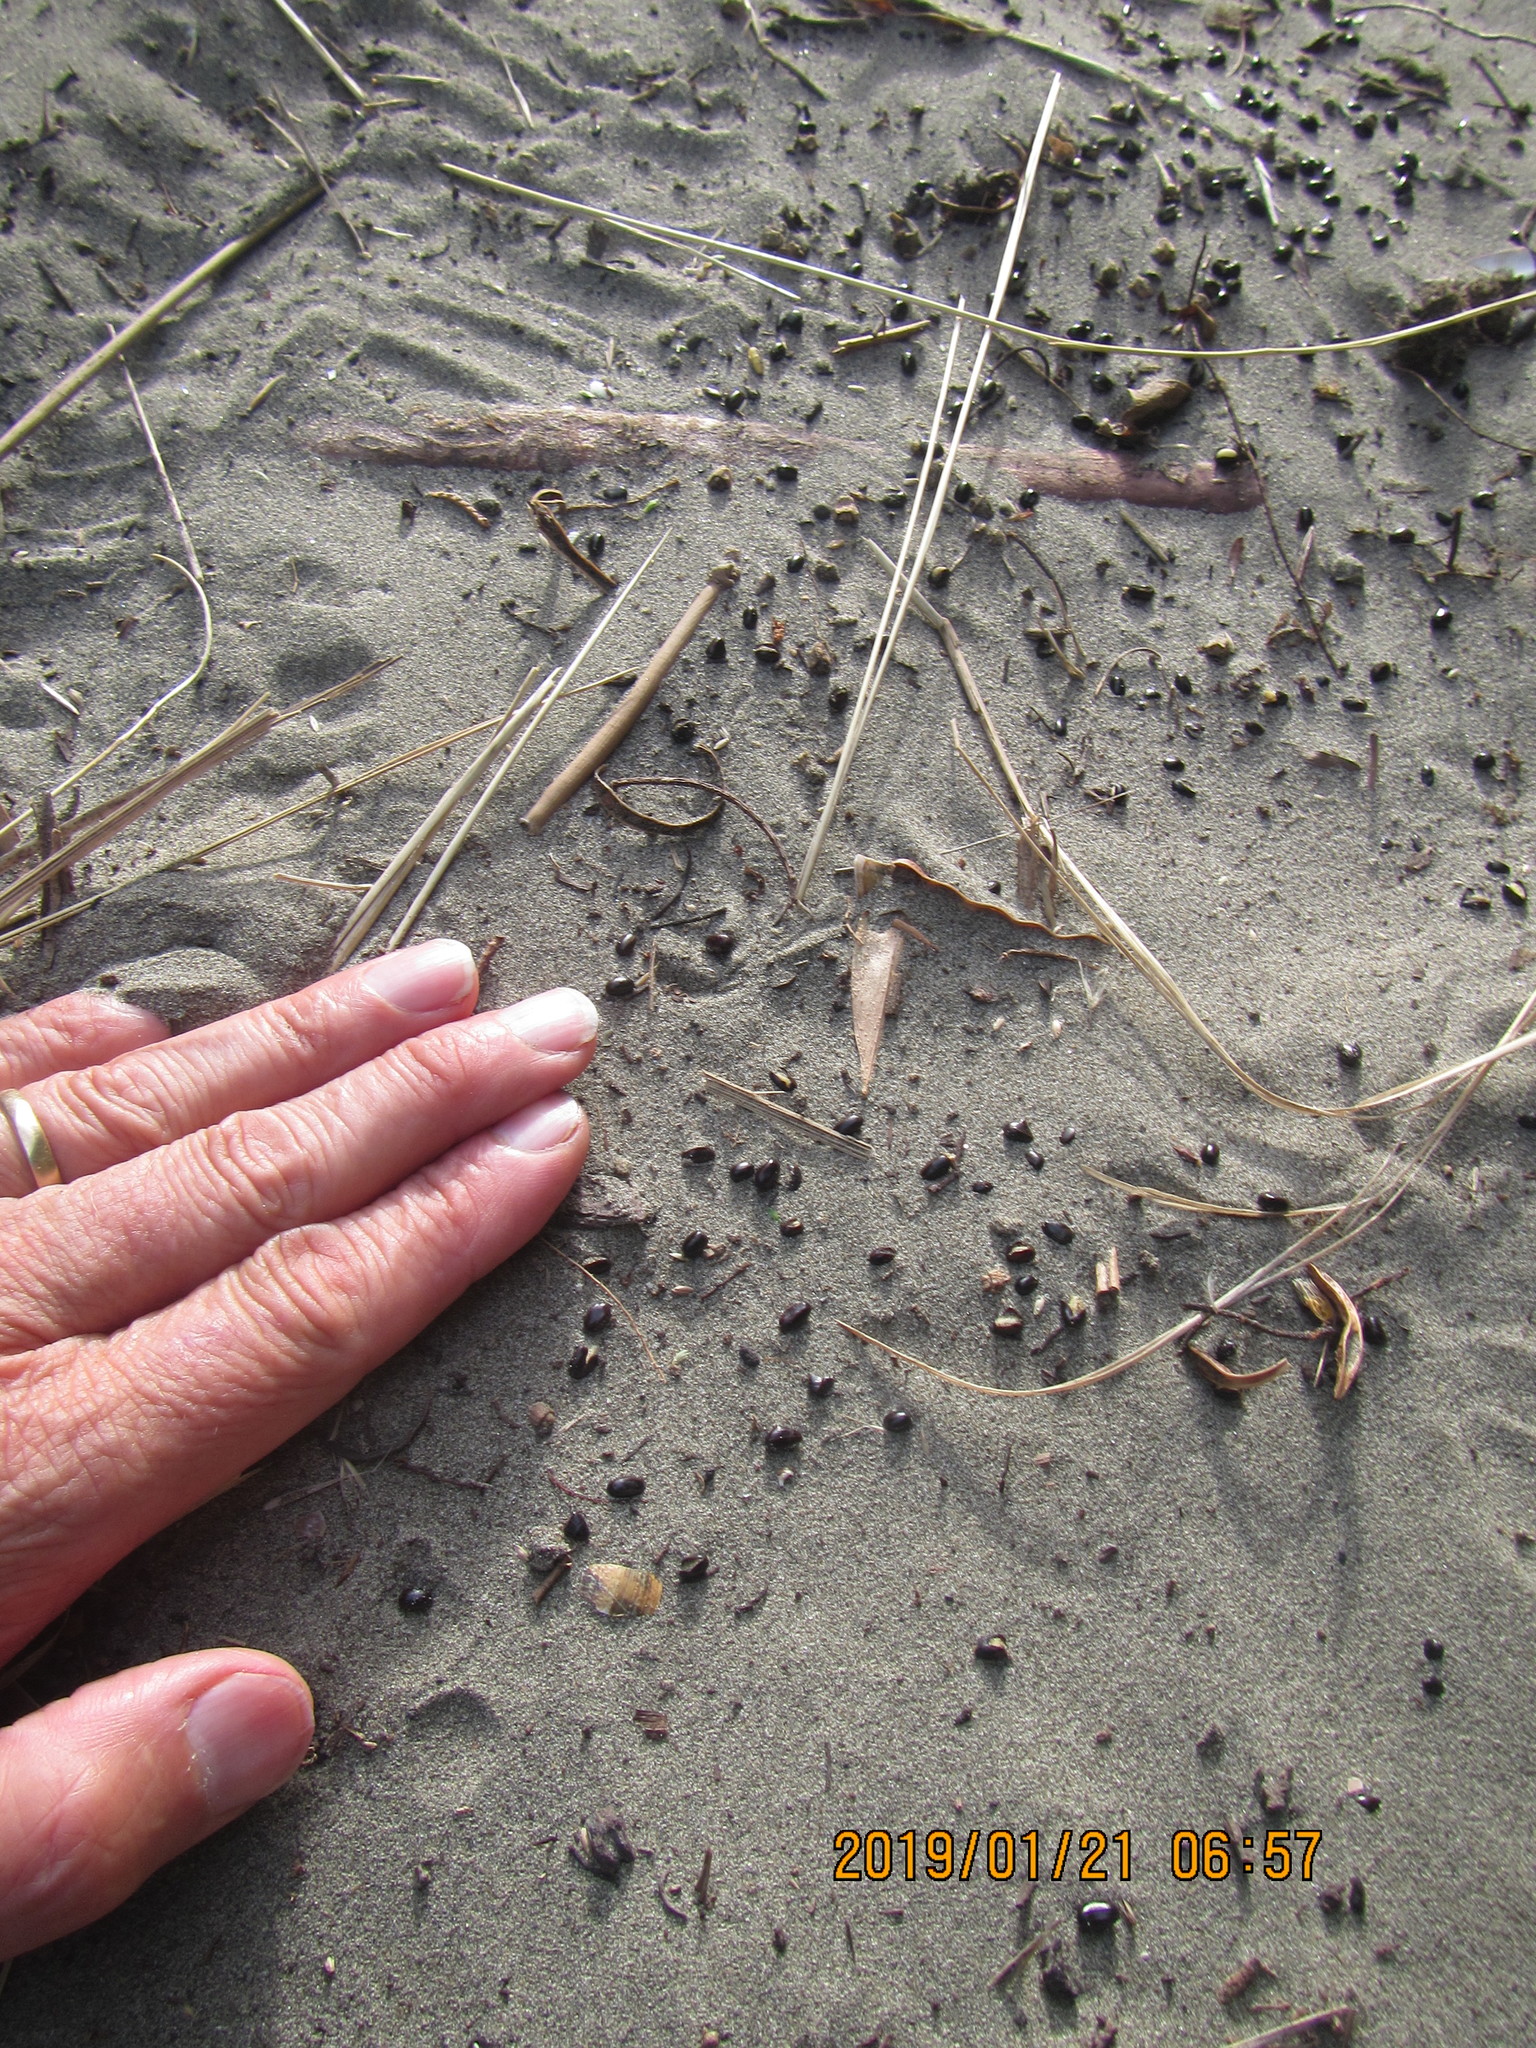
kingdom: Plantae
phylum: Tracheophyta
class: Magnoliopsida
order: Fabales
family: Fabaceae
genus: Acacia
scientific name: Acacia longifolia
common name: Sydney golden wattle
